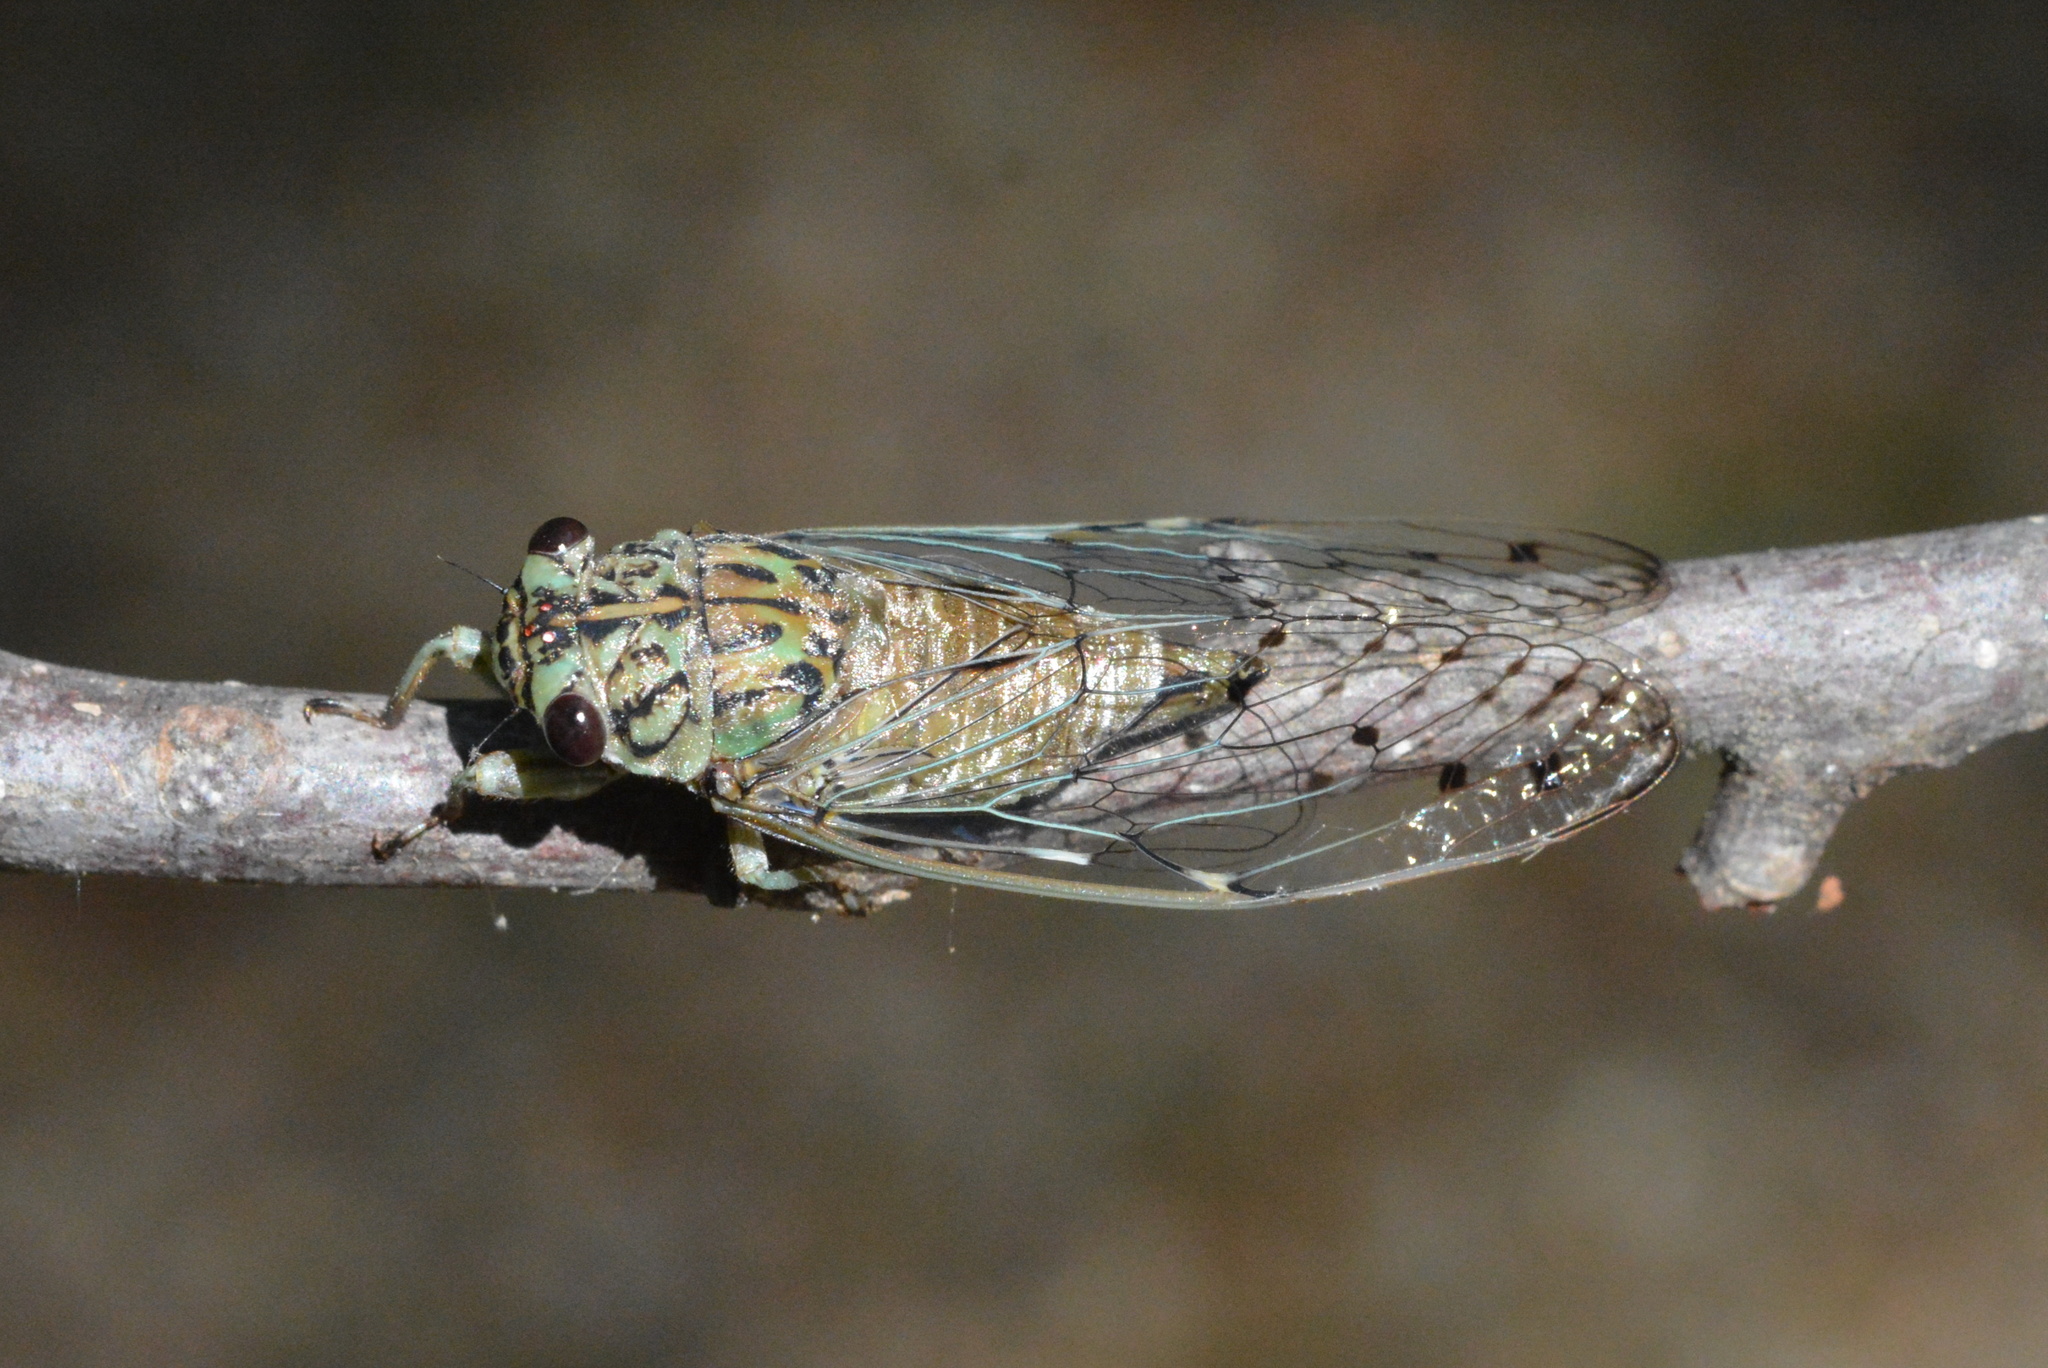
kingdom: Animalia
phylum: Arthropoda
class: Insecta
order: Hemiptera
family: Cicadidae
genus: Neocicada
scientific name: Neocicada hieroglyphica
